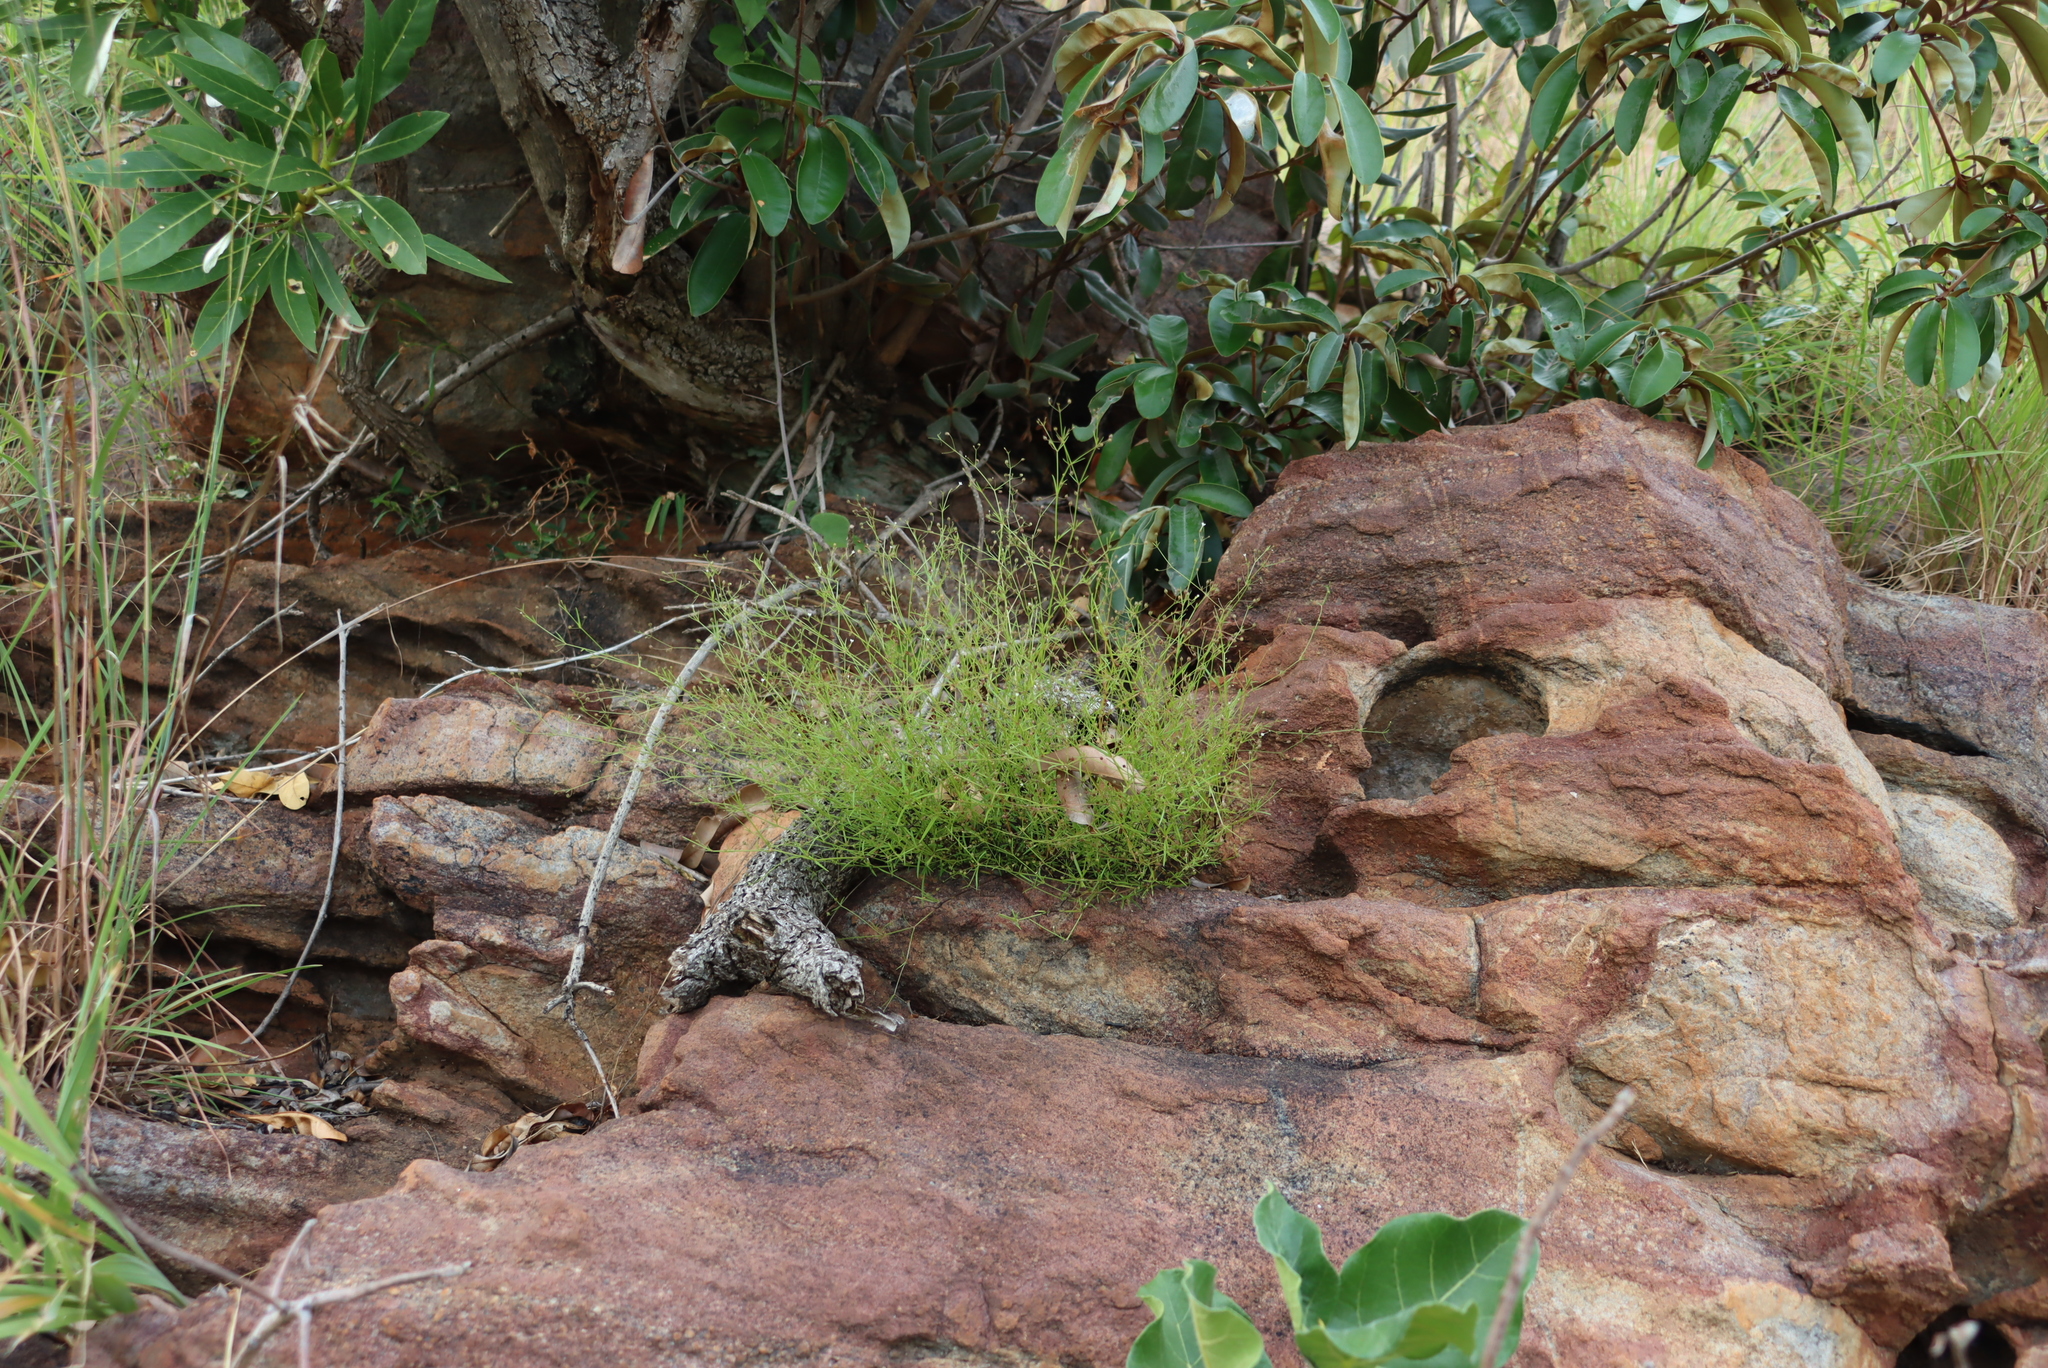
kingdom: Plantae
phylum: Tracheophyta
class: Magnoliopsida
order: Gentianales
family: Rubiaceae
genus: Oldenlandia
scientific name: Oldenlandia herbacea
